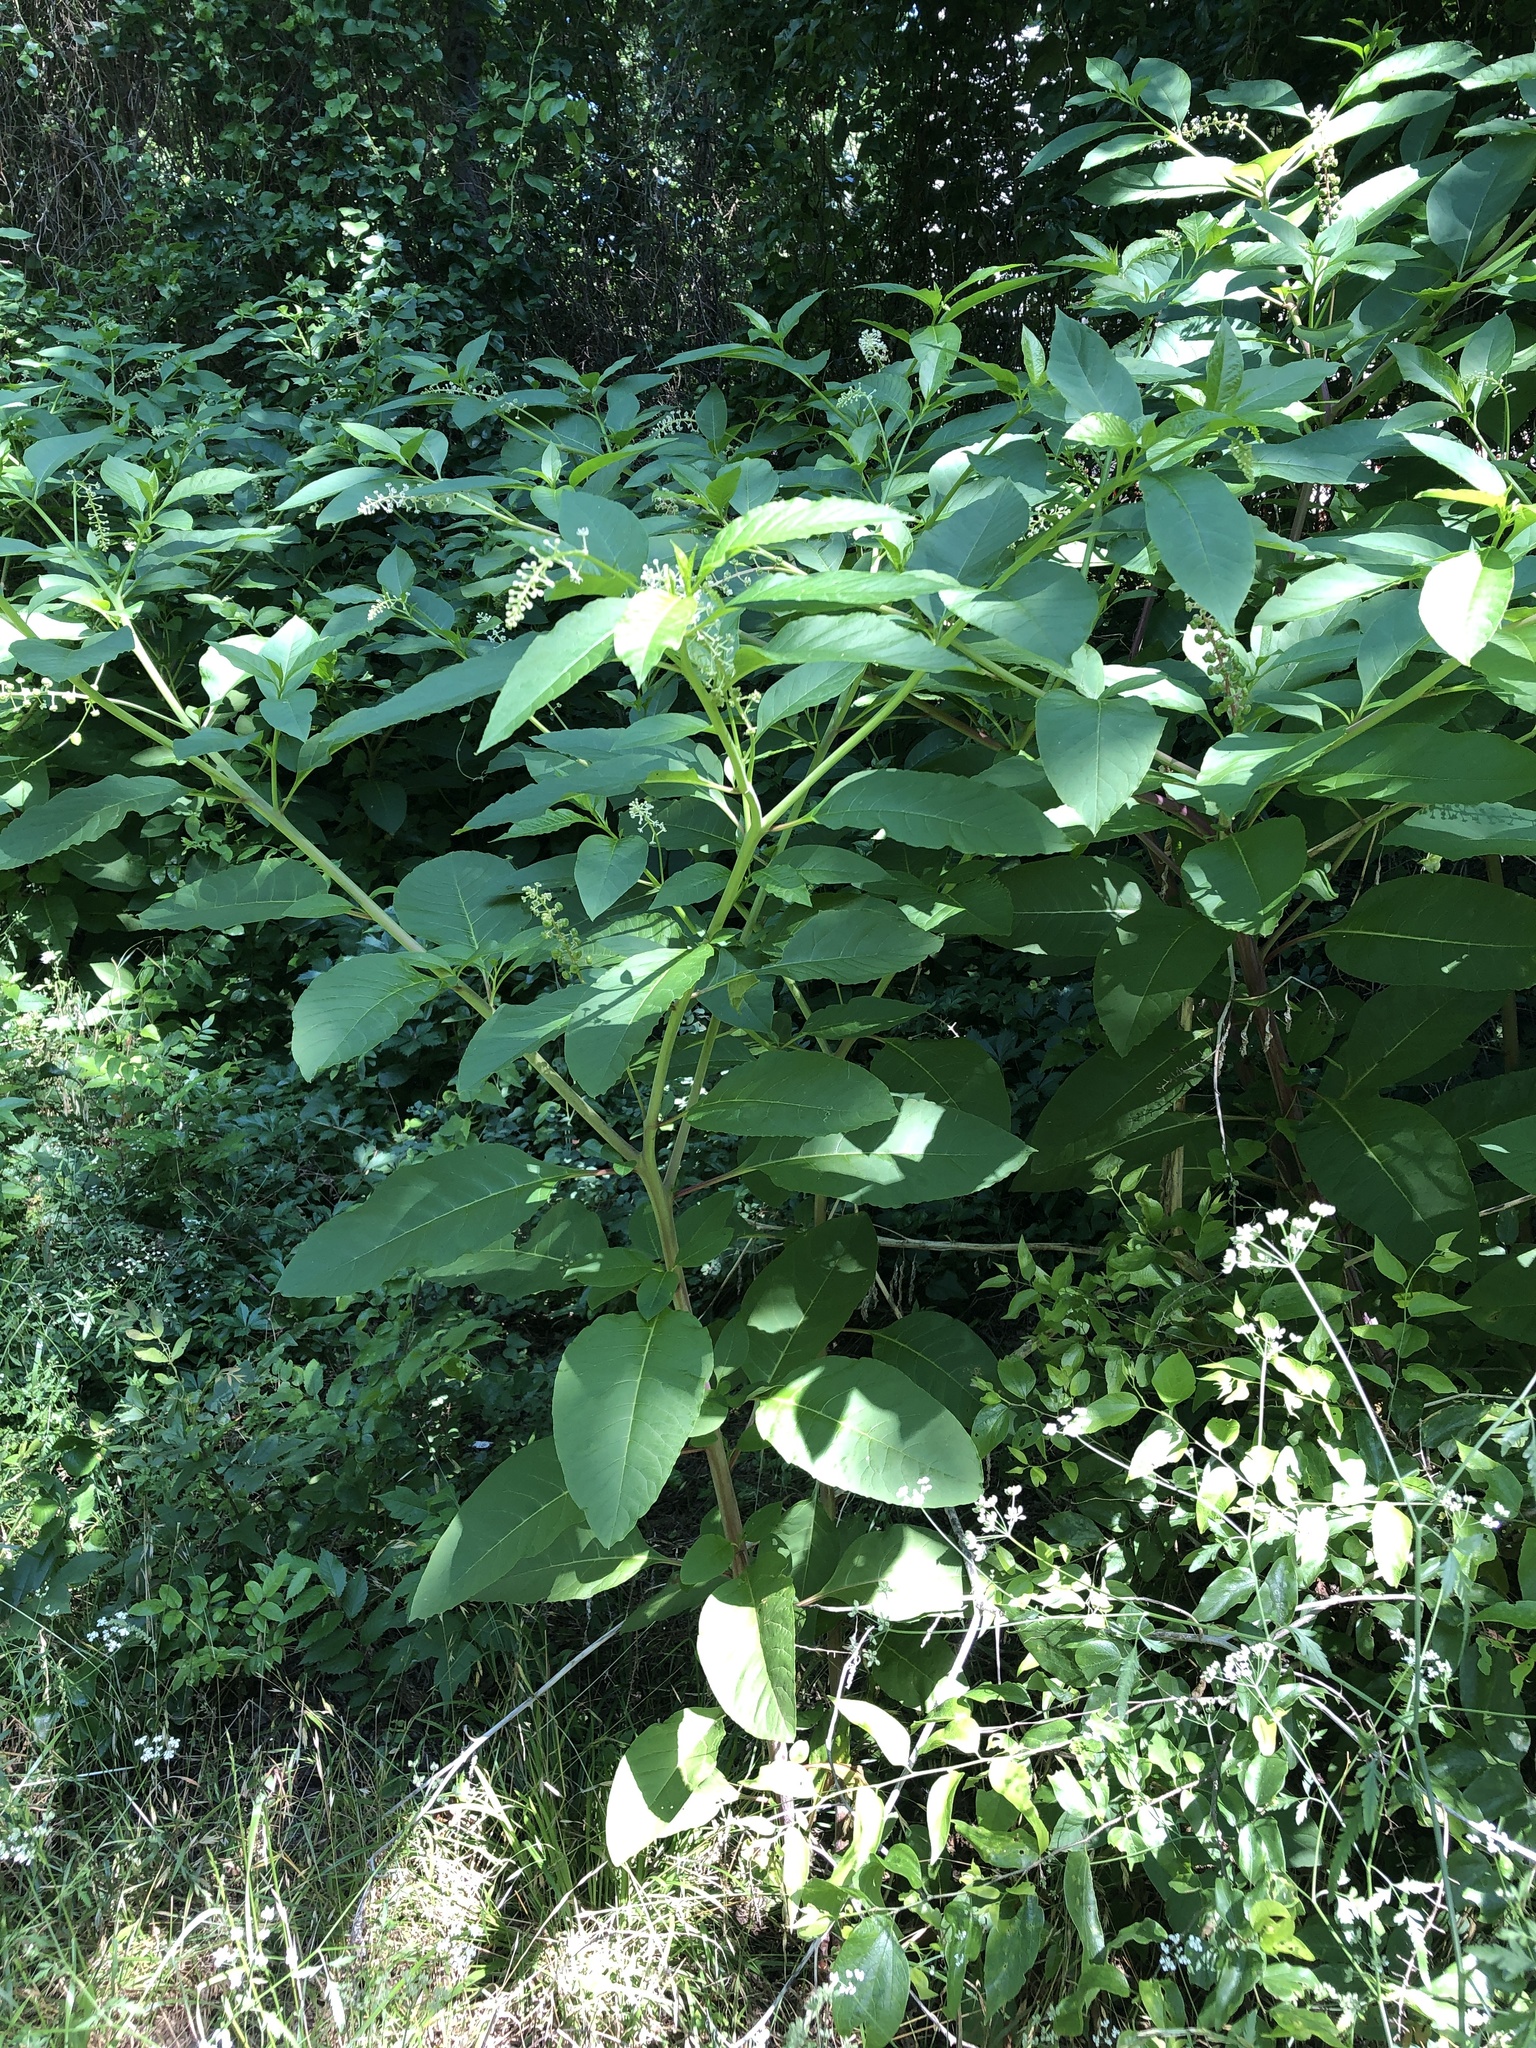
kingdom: Plantae
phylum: Tracheophyta
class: Magnoliopsida
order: Caryophyllales
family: Phytolaccaceae
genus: Phytolacca
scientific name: Phytolacca americana
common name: American pokeweed
